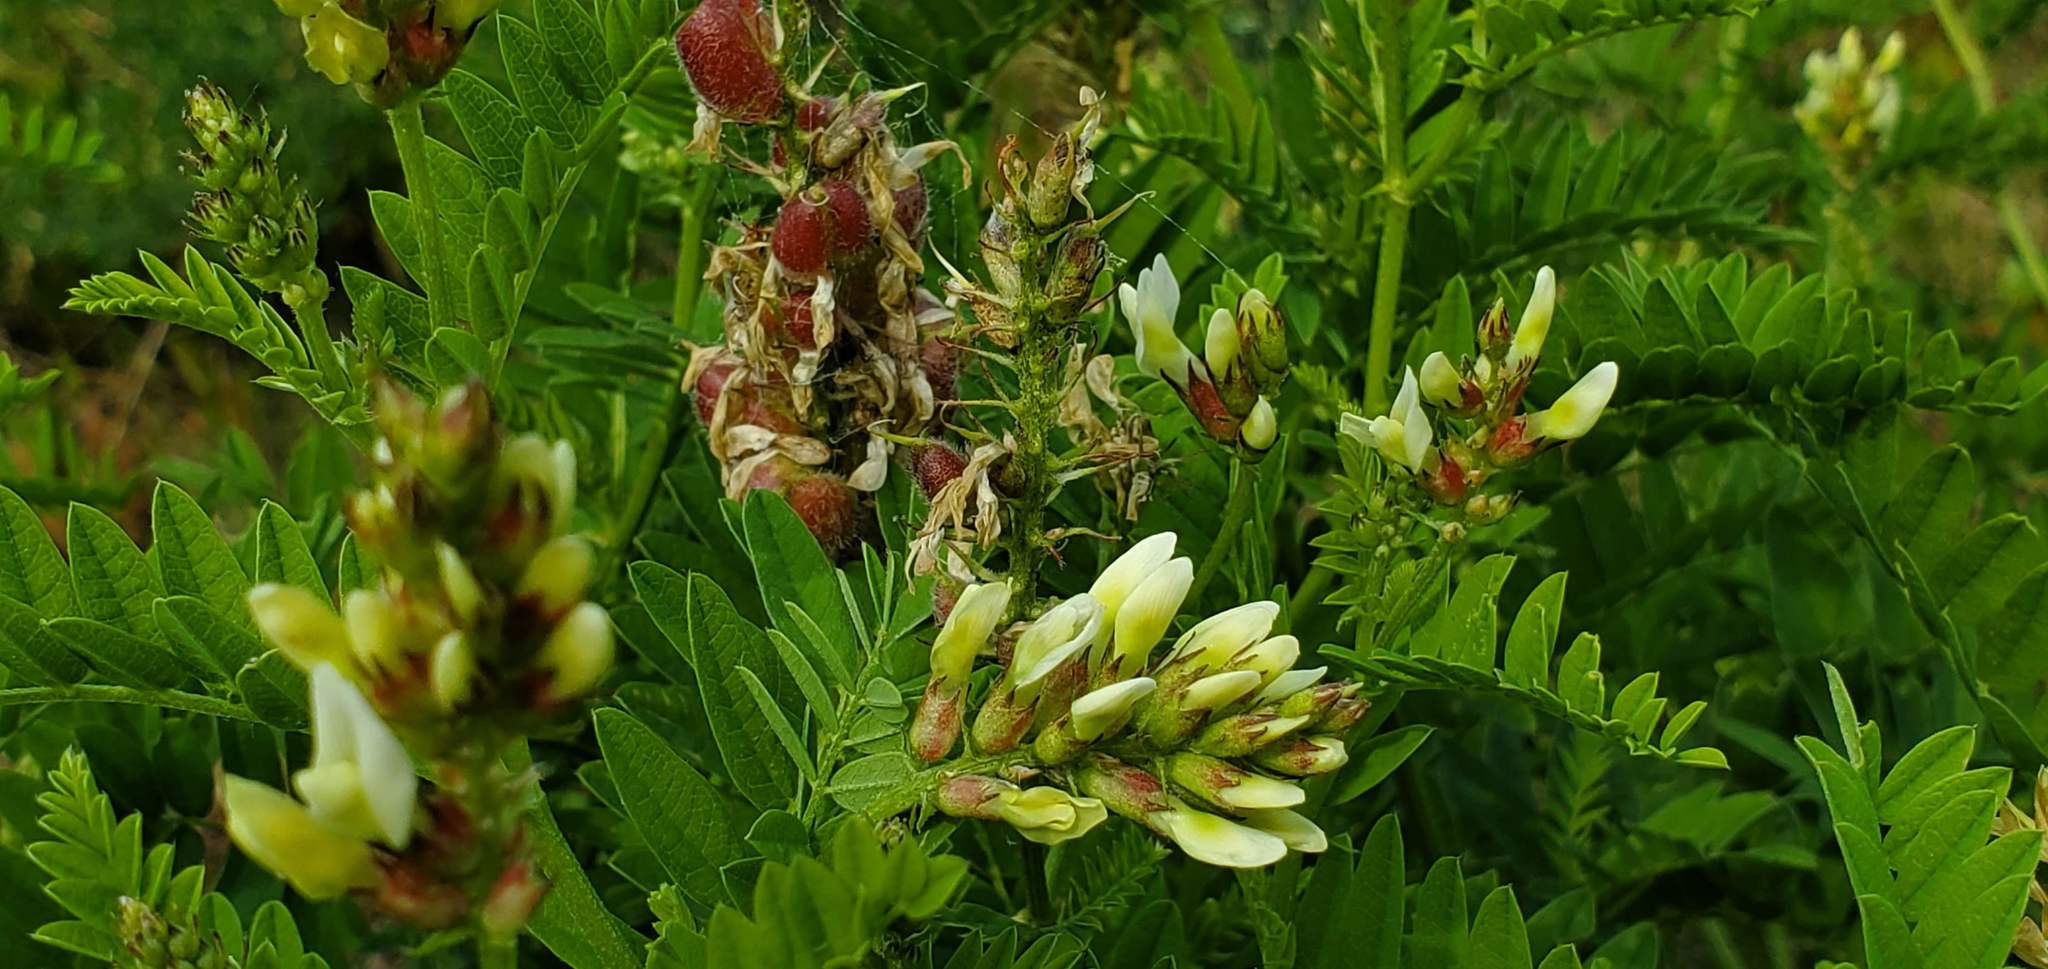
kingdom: Plantae
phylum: Tracheophyta
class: Magnoliopsida
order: Fabales
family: Fabaceae
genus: Astragalus
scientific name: Astragalus cicer
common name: Chick-pea milk-vetch
